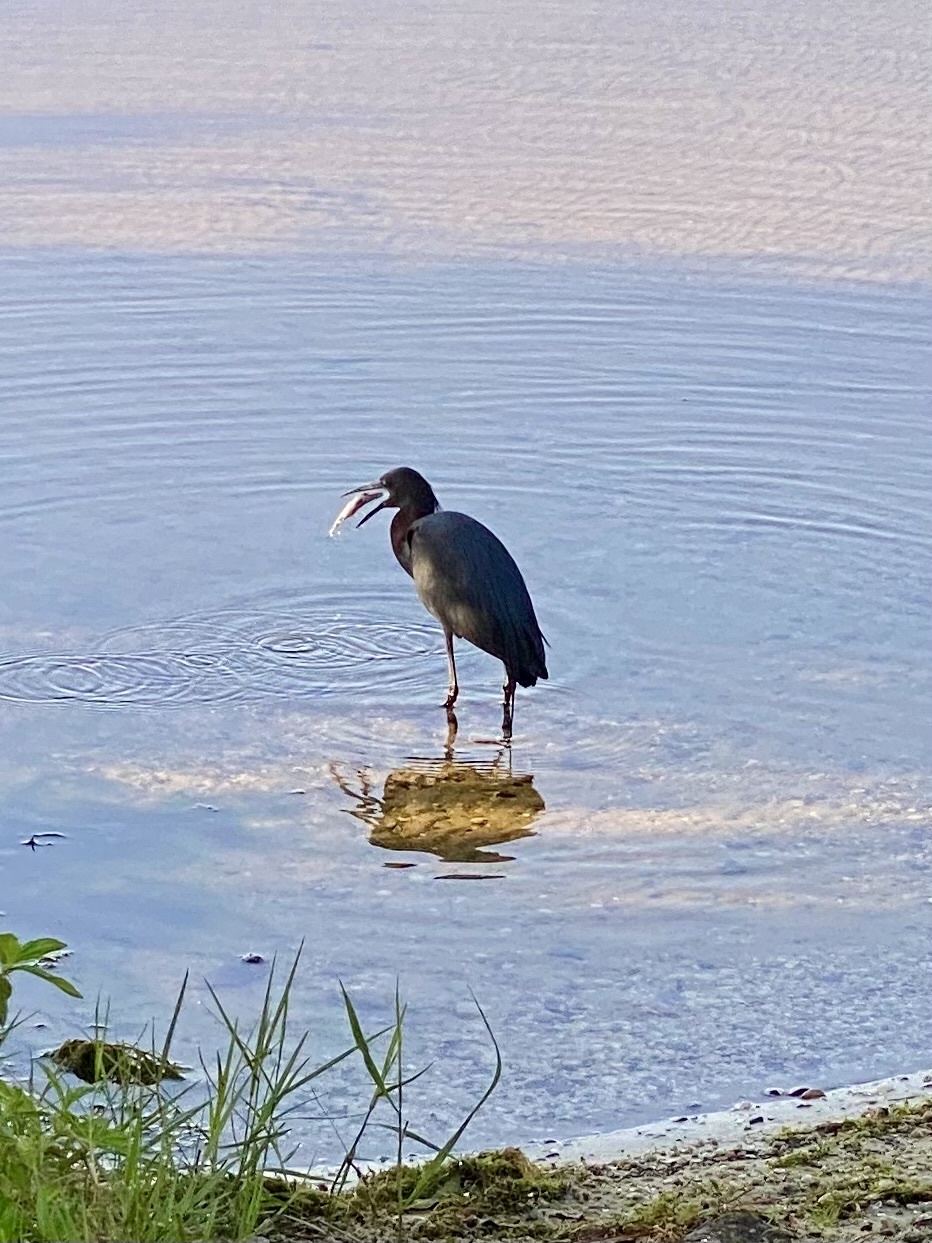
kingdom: Animalia
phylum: Chordata
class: Aves
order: Pelecaniformes
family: Ardeidae
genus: Egretta
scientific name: Egretta caerulea
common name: Little blue heron
